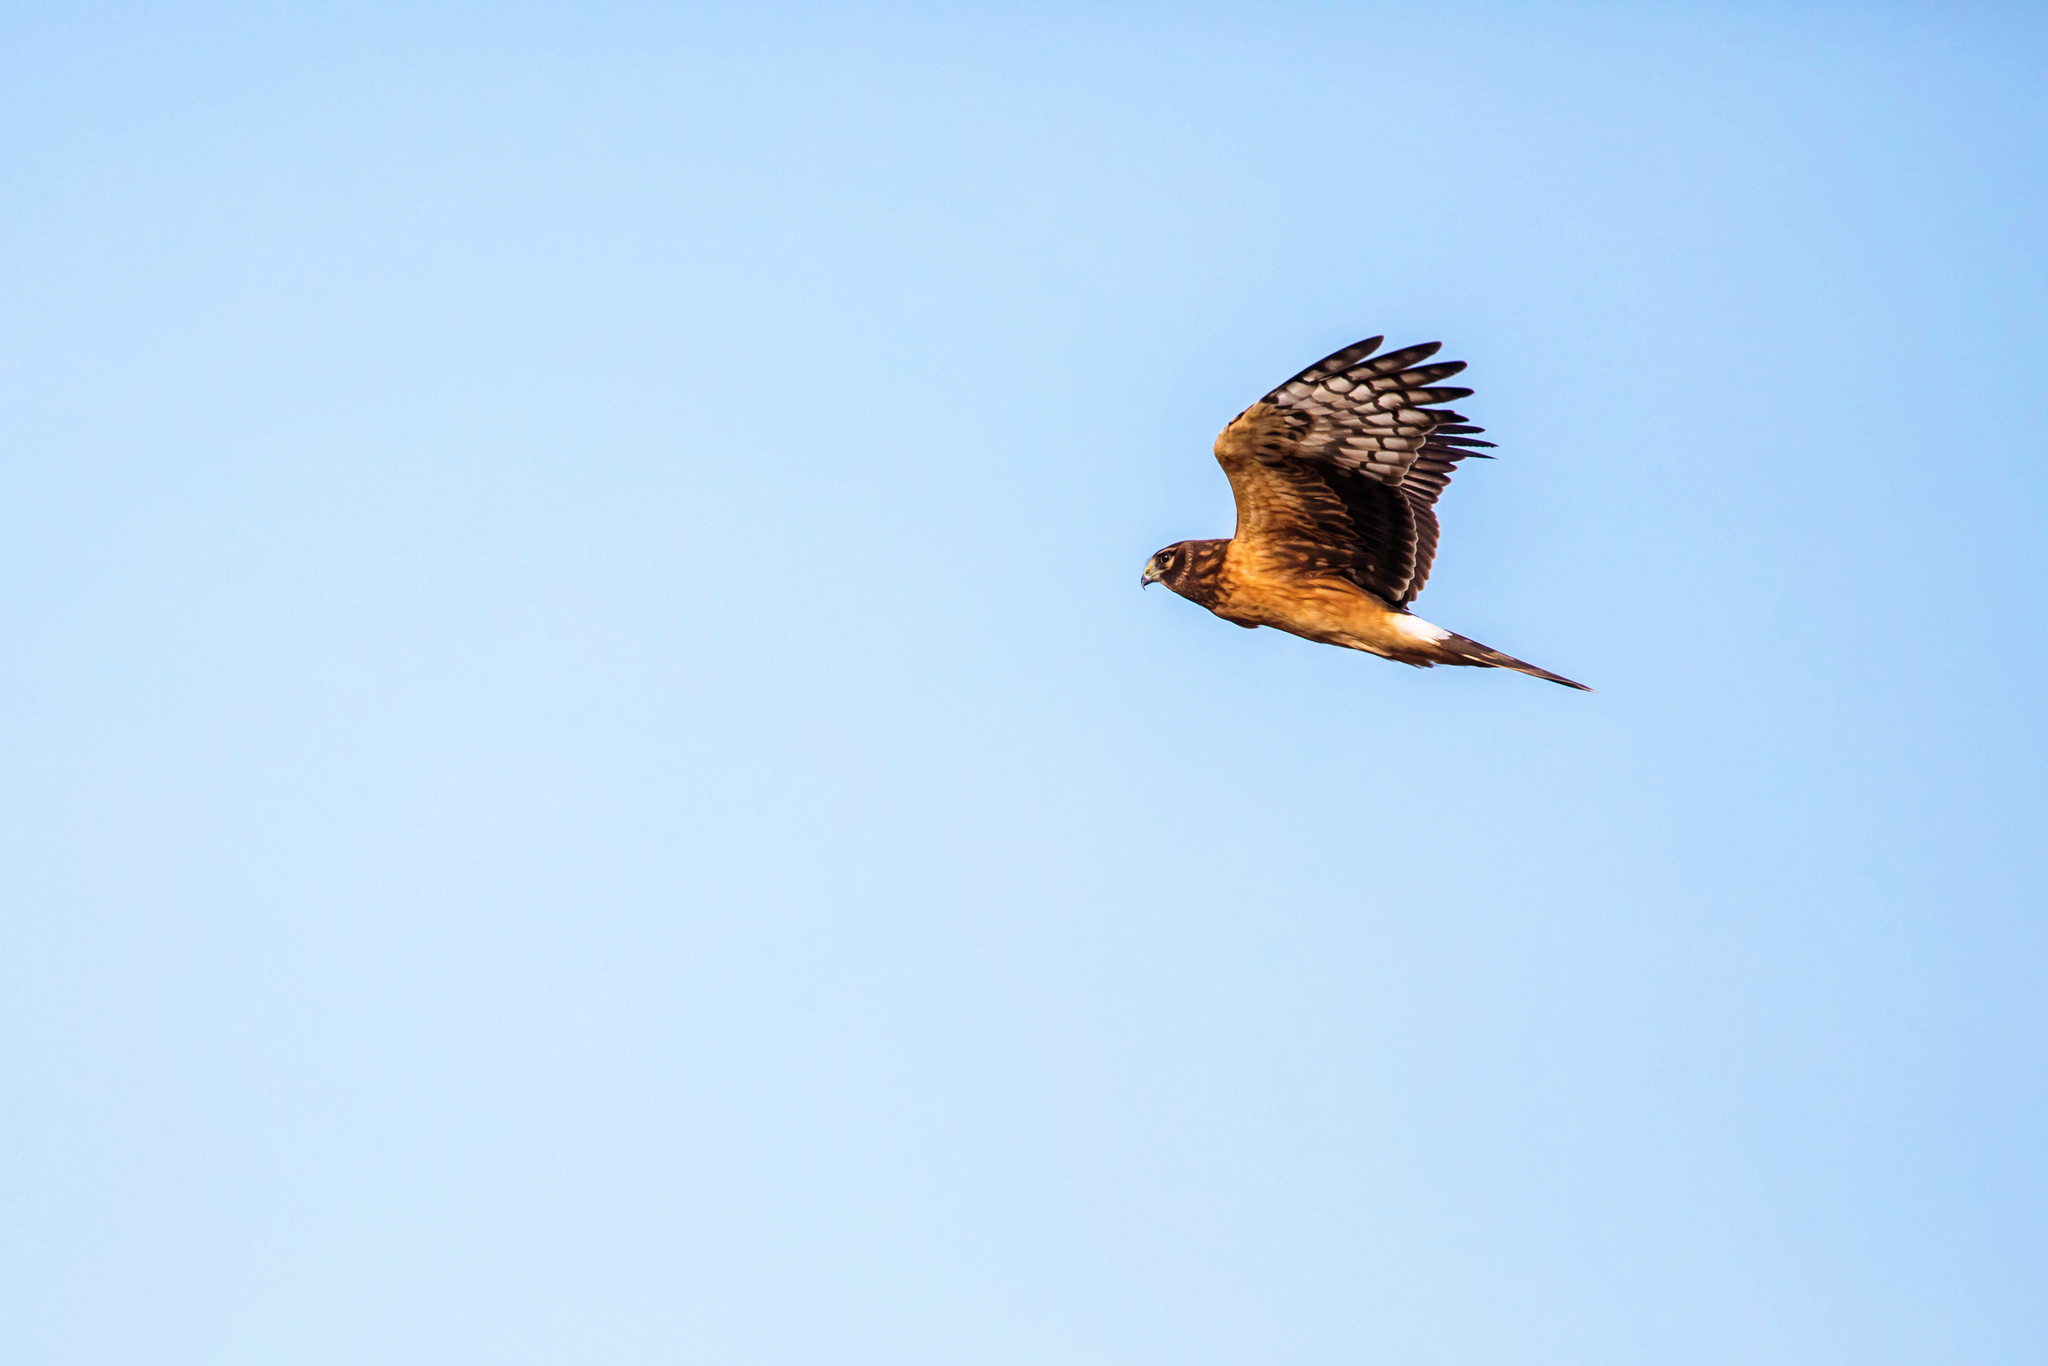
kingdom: Animalia
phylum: Chordata
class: Aves
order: Accipitriformes
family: Accipitridae
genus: Circus
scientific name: Circus cyaneus
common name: Hen harrier
